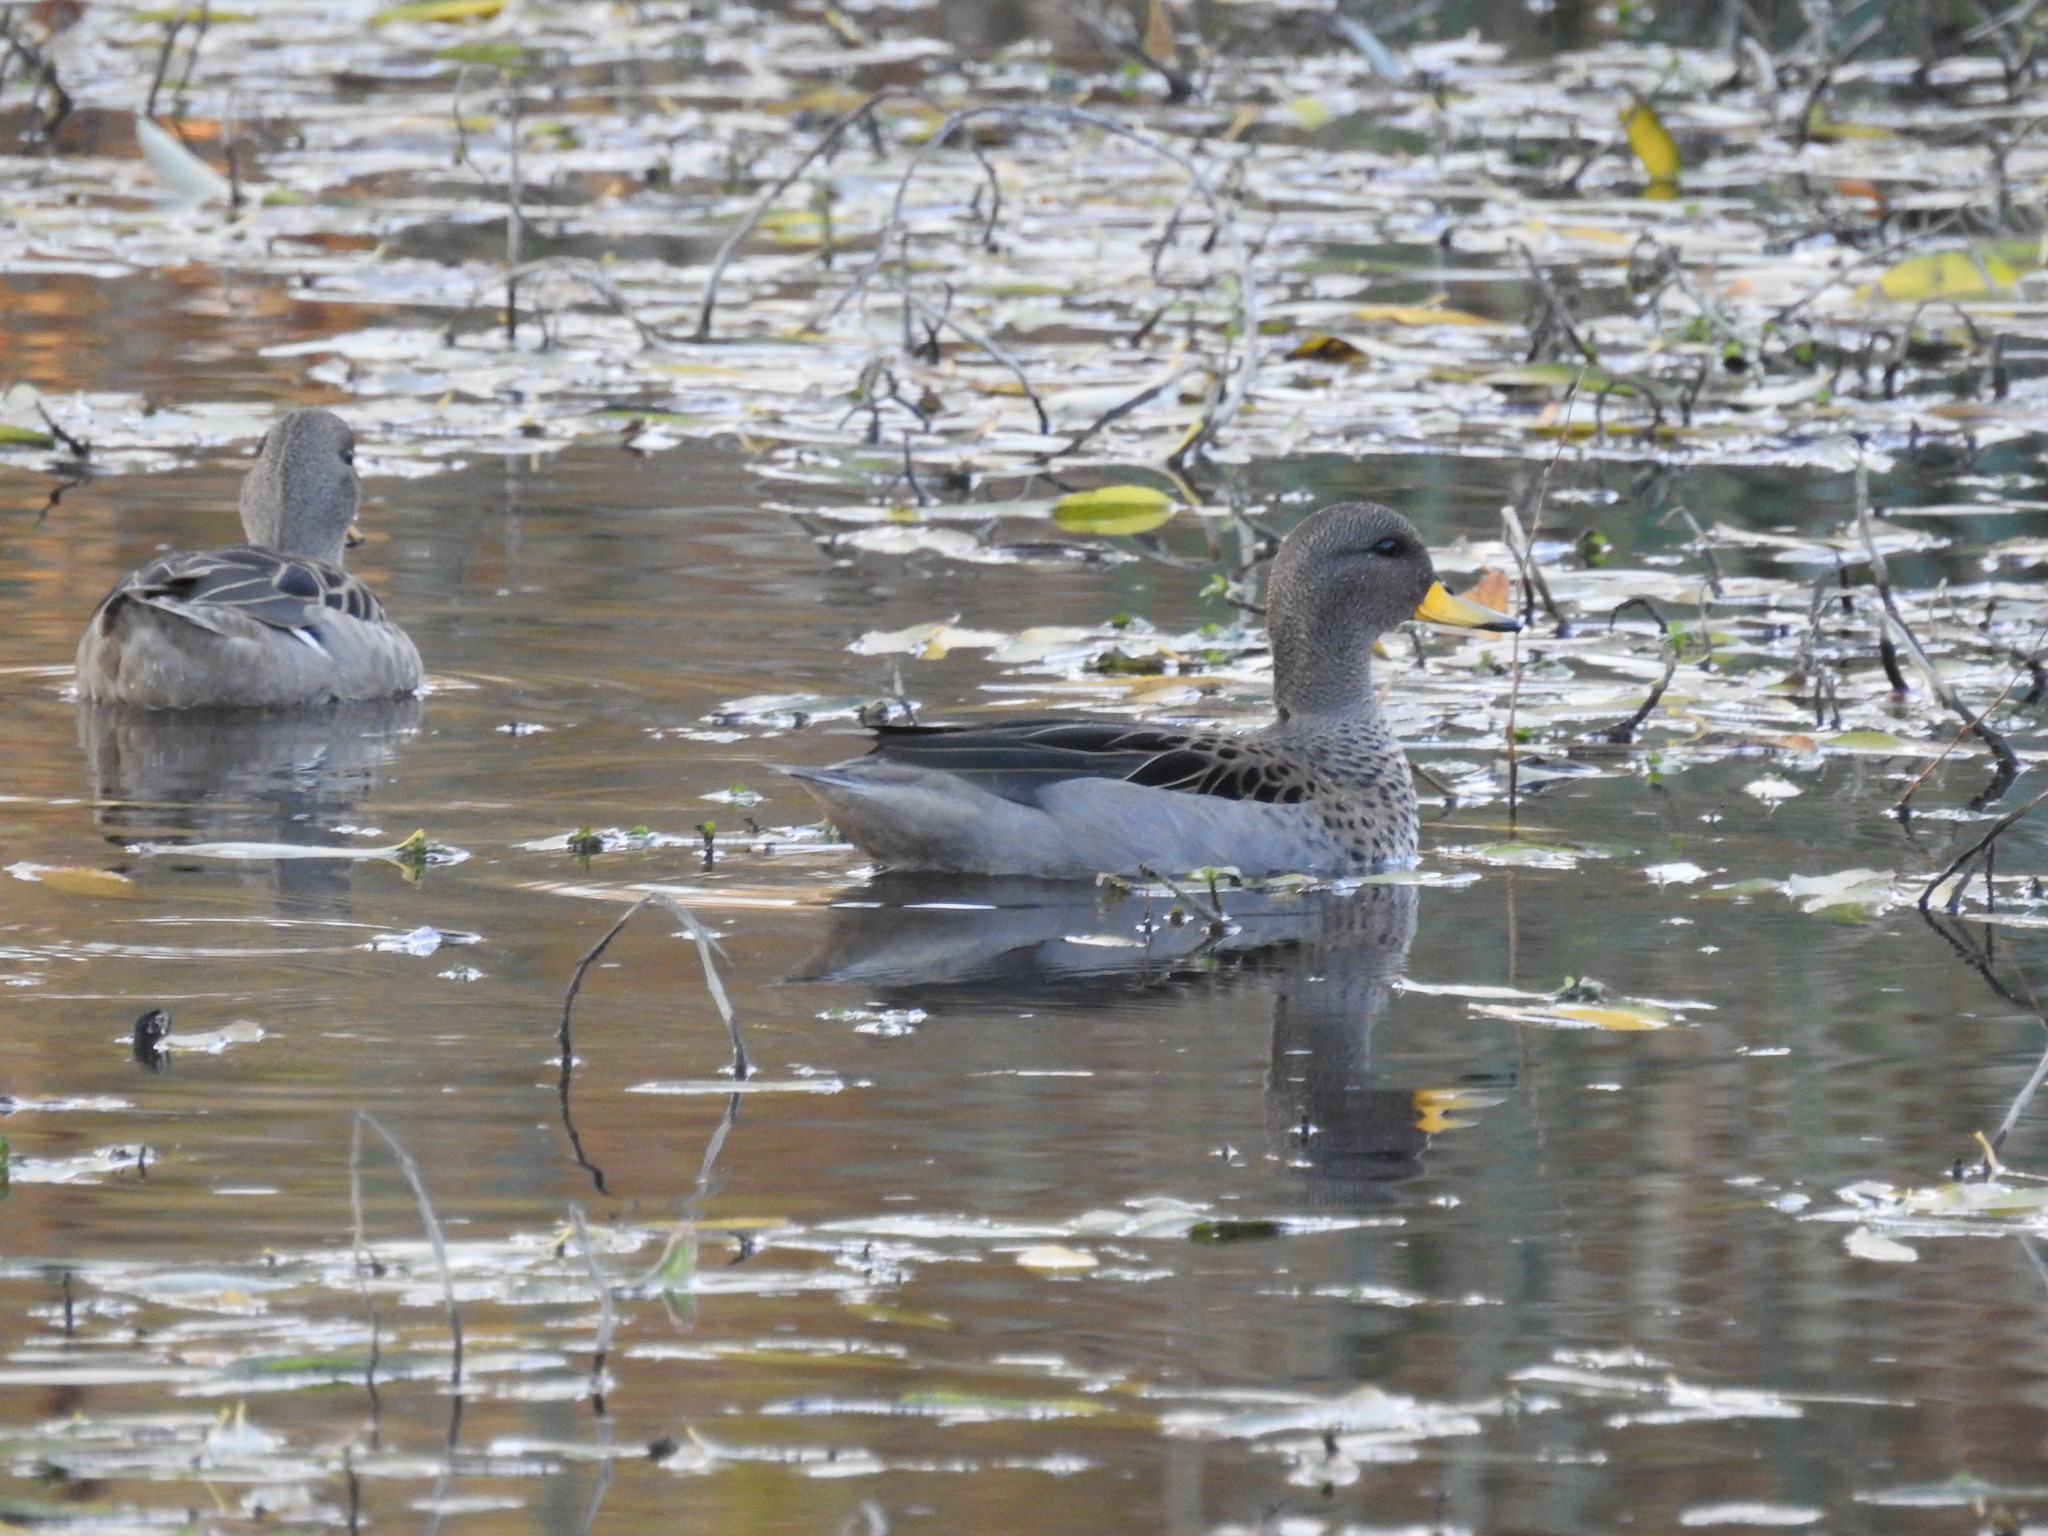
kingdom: Animalia
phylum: Chordata
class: Aves
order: Anseriformes
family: Anatidae
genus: Anas
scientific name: Anas flavirostris
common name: Yellow-billed teal
